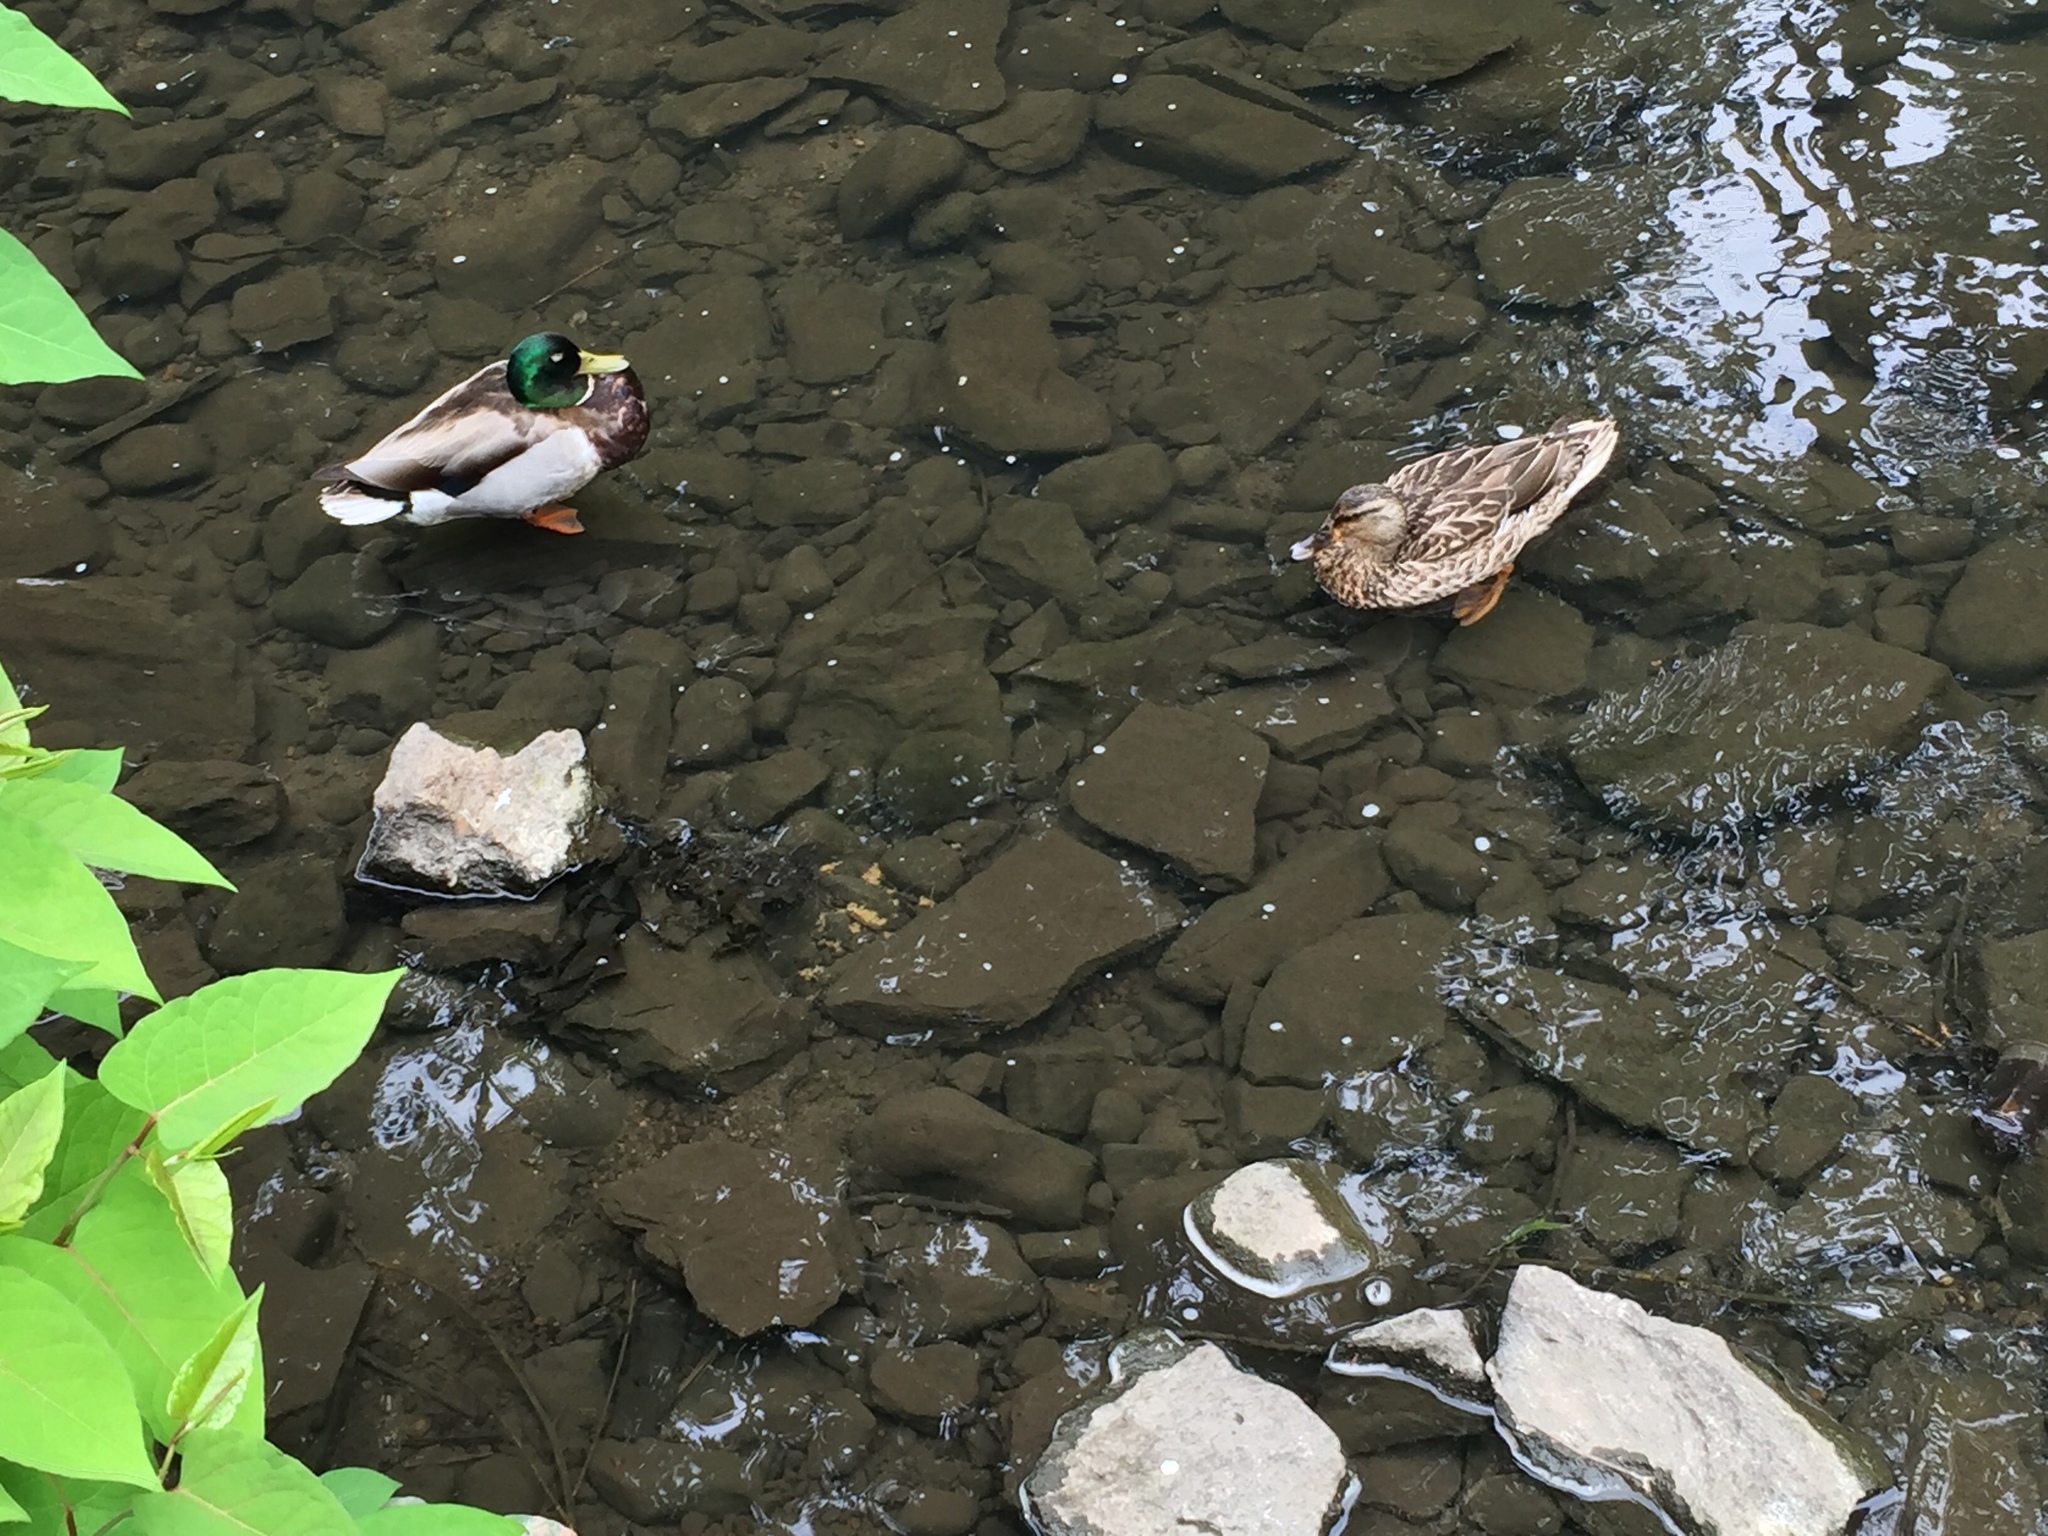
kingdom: Animalia
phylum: Chordata
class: Aves
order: Anseriformes
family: Anatidae
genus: Anas
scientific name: Anas platyrhynchos
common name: Mallard
